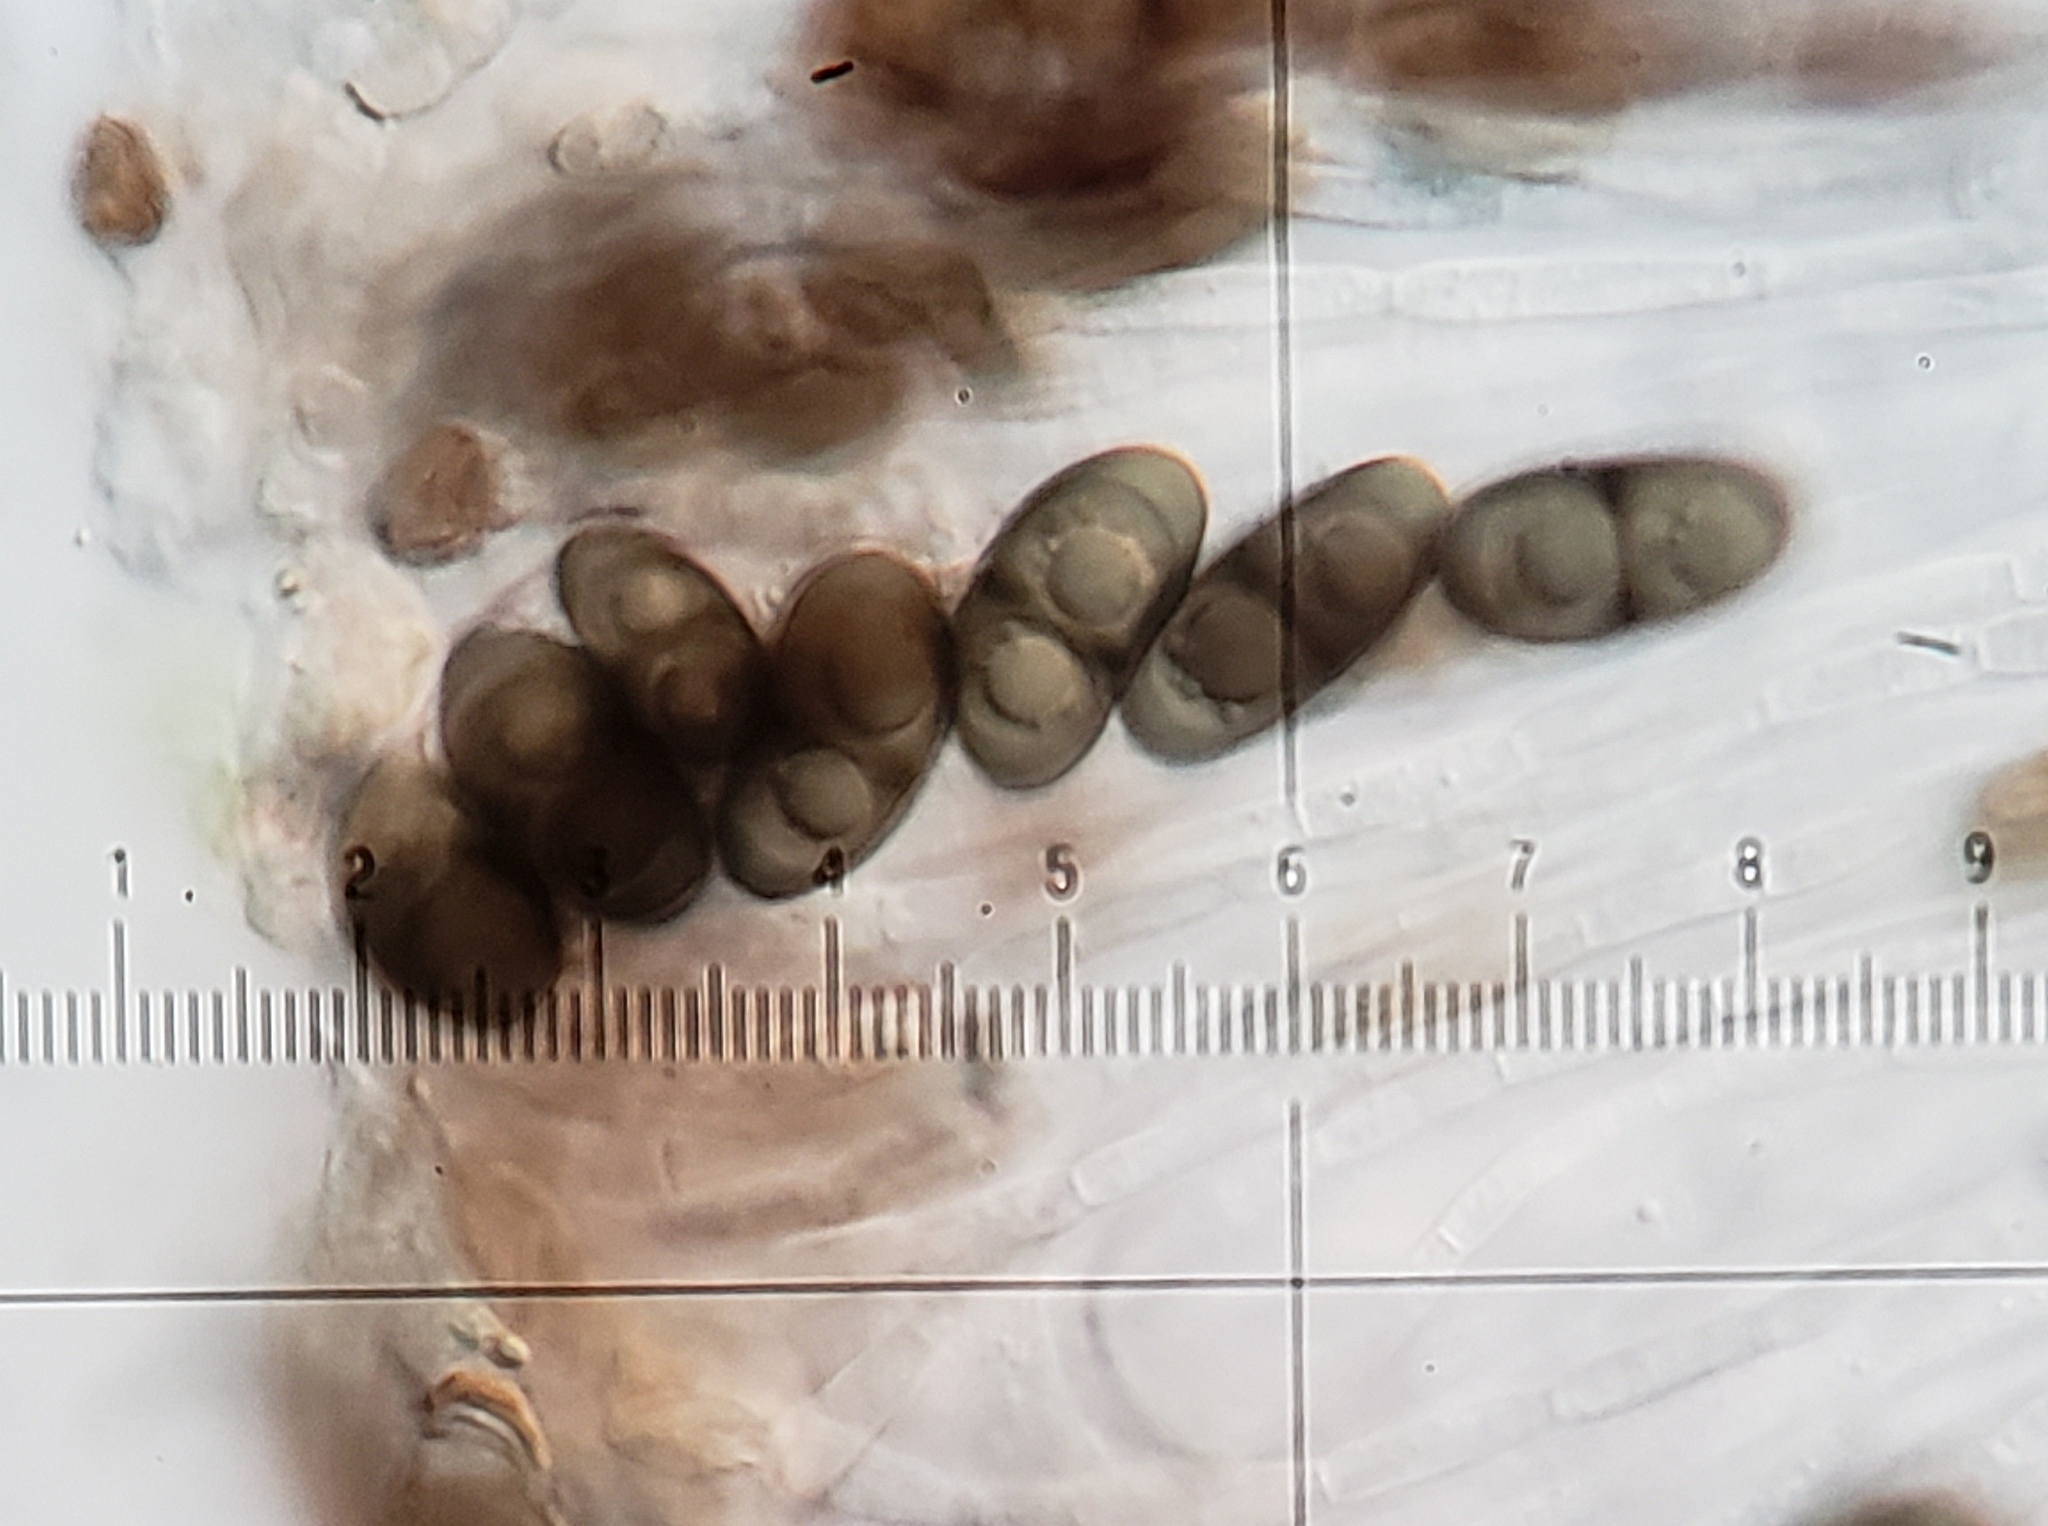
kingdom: Fungi
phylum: Ascomycota
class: Lecanoromycetes
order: Caliciales
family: Physciaceae
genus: Rinodina
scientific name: Rinodina exigua
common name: Spoke pepper-spore lichen
